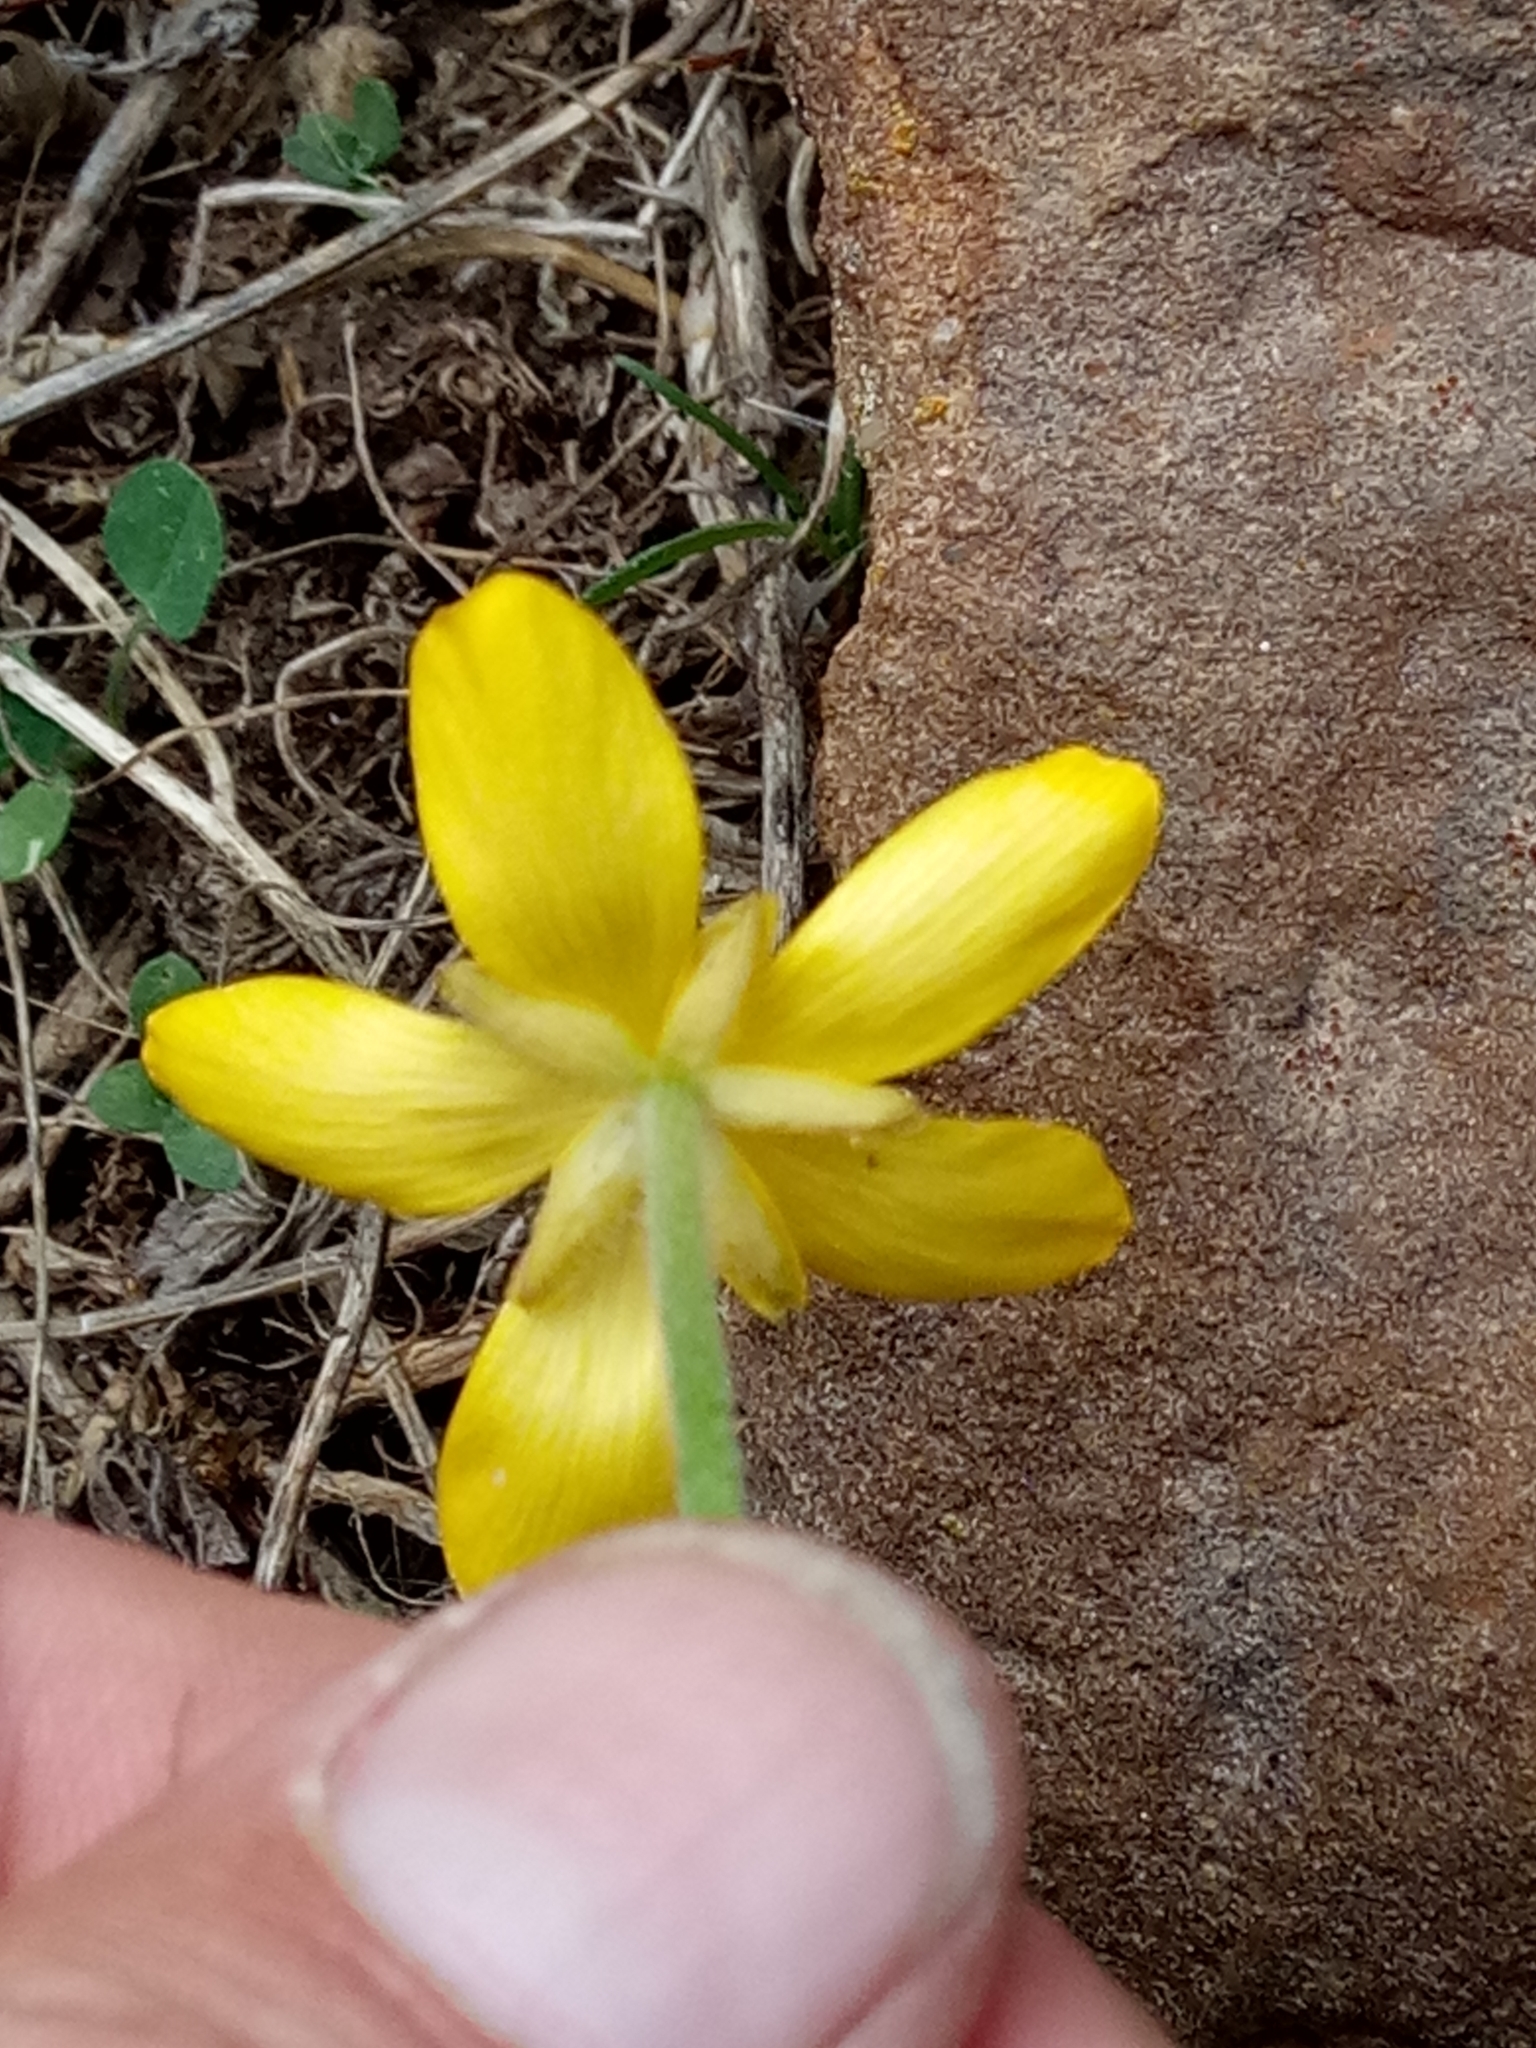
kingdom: Plantae
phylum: Tracheophyta
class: Magnoliopsida
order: Ranunculales
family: Ranunculaceae
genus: Ranunculus
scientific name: Ranunculus bullatus
